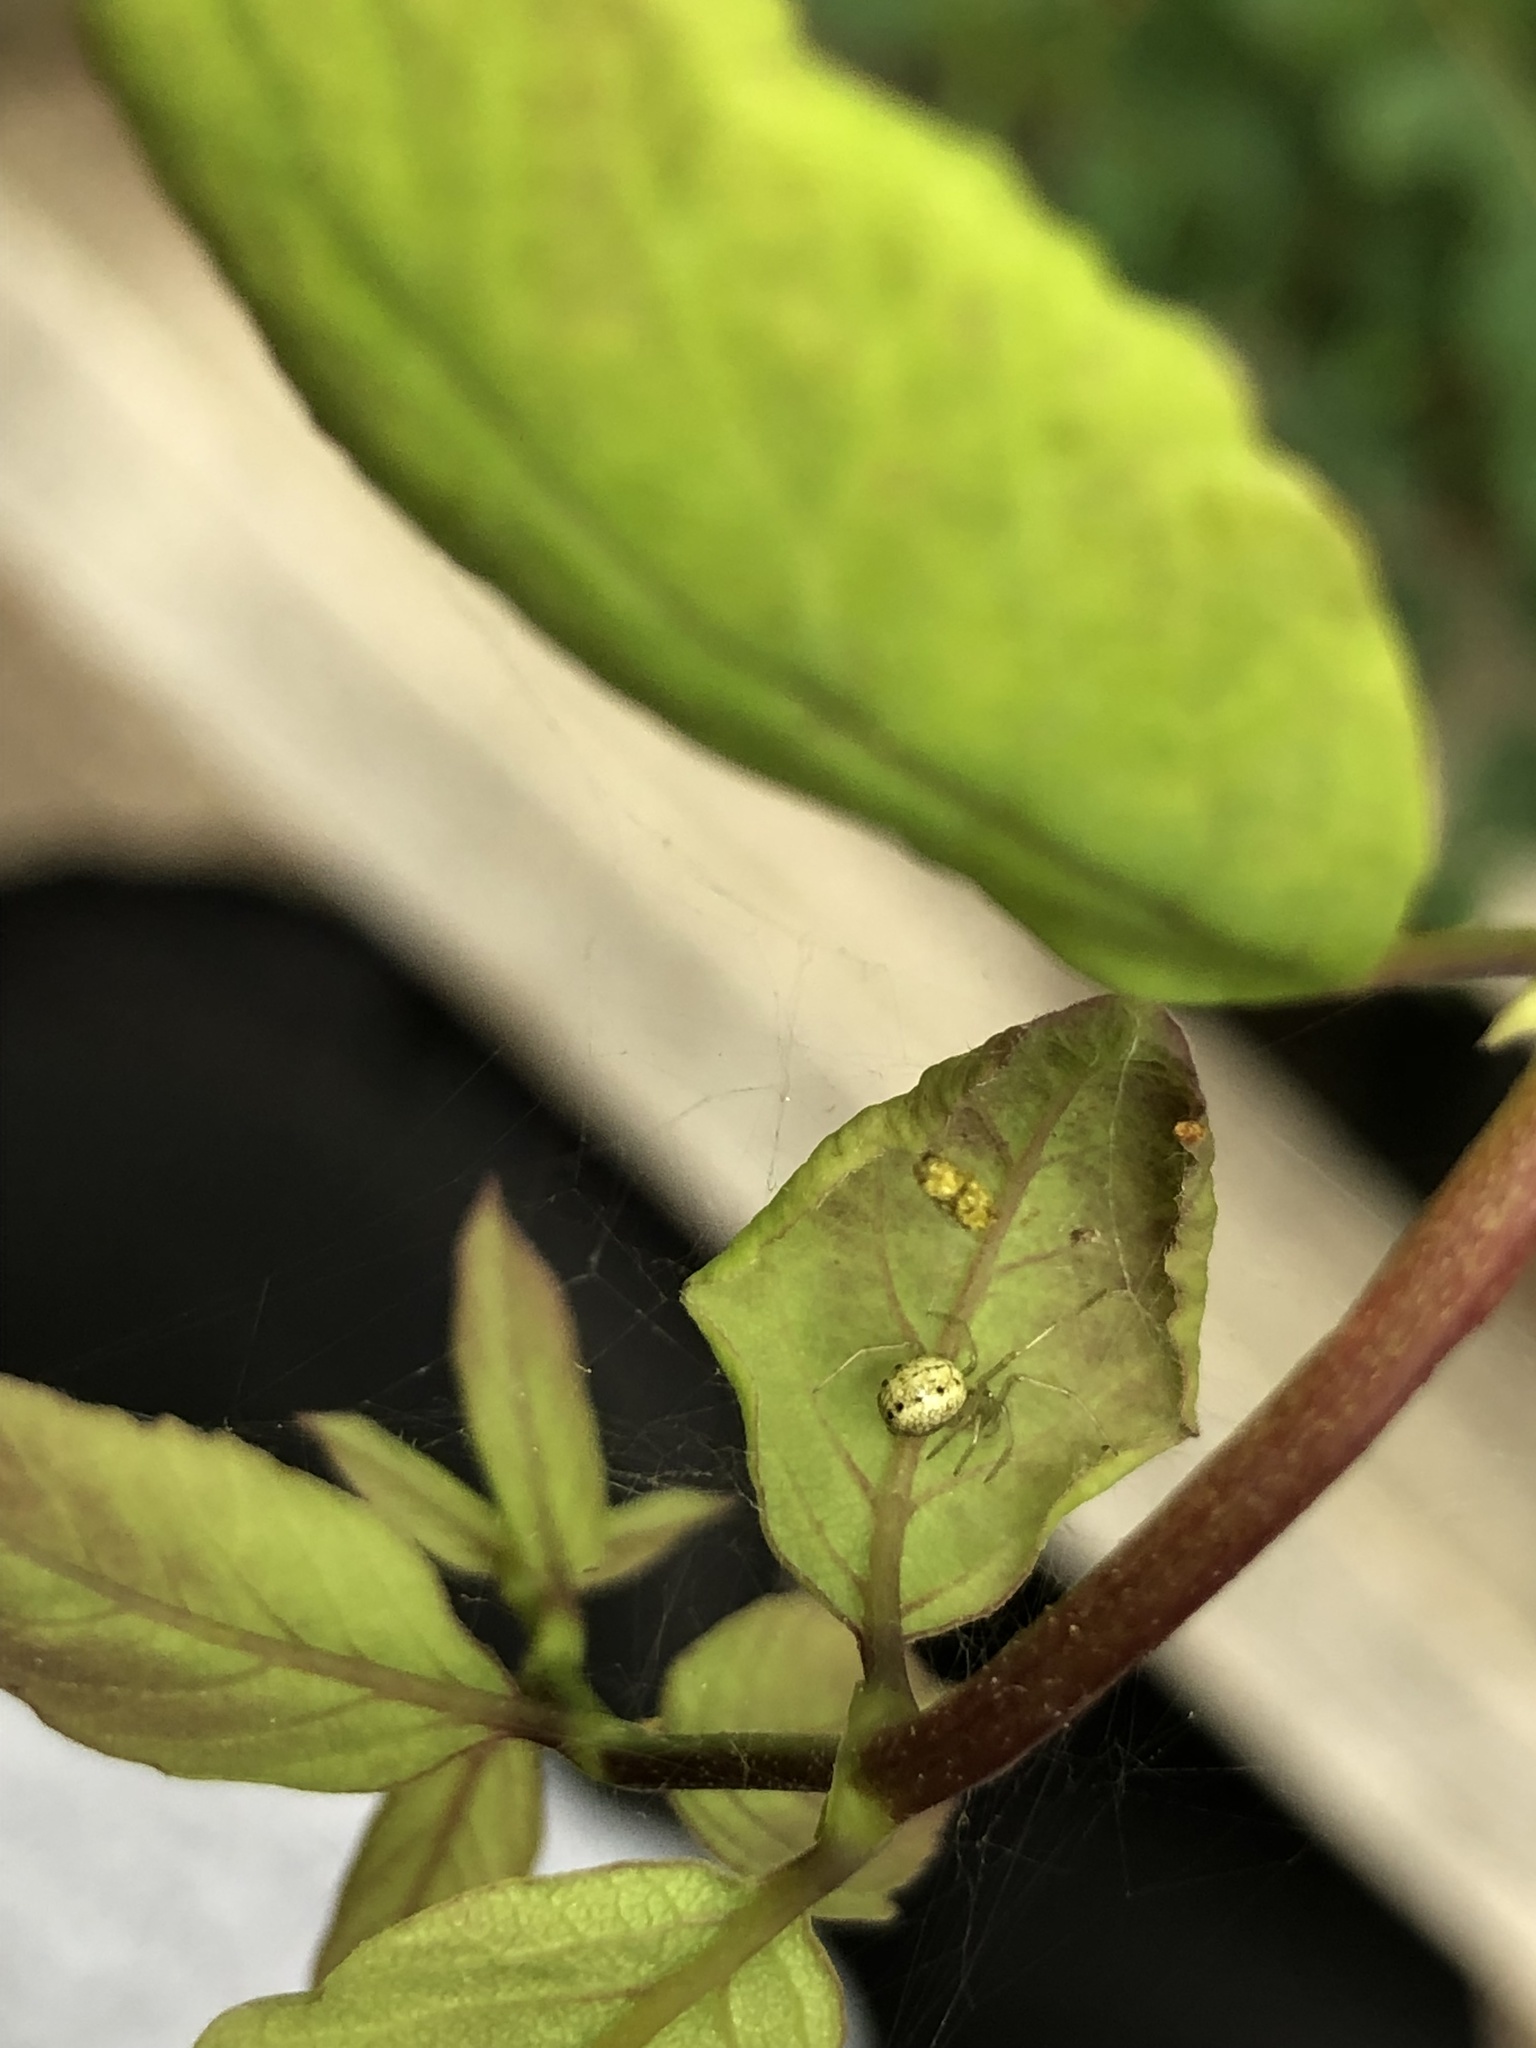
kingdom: Animalia
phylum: Arthropoda
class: Arachnida
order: Araneae
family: Theridiidae
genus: Enoplognatha
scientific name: Enoplognatha ovata
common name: Common candy-striped spider
